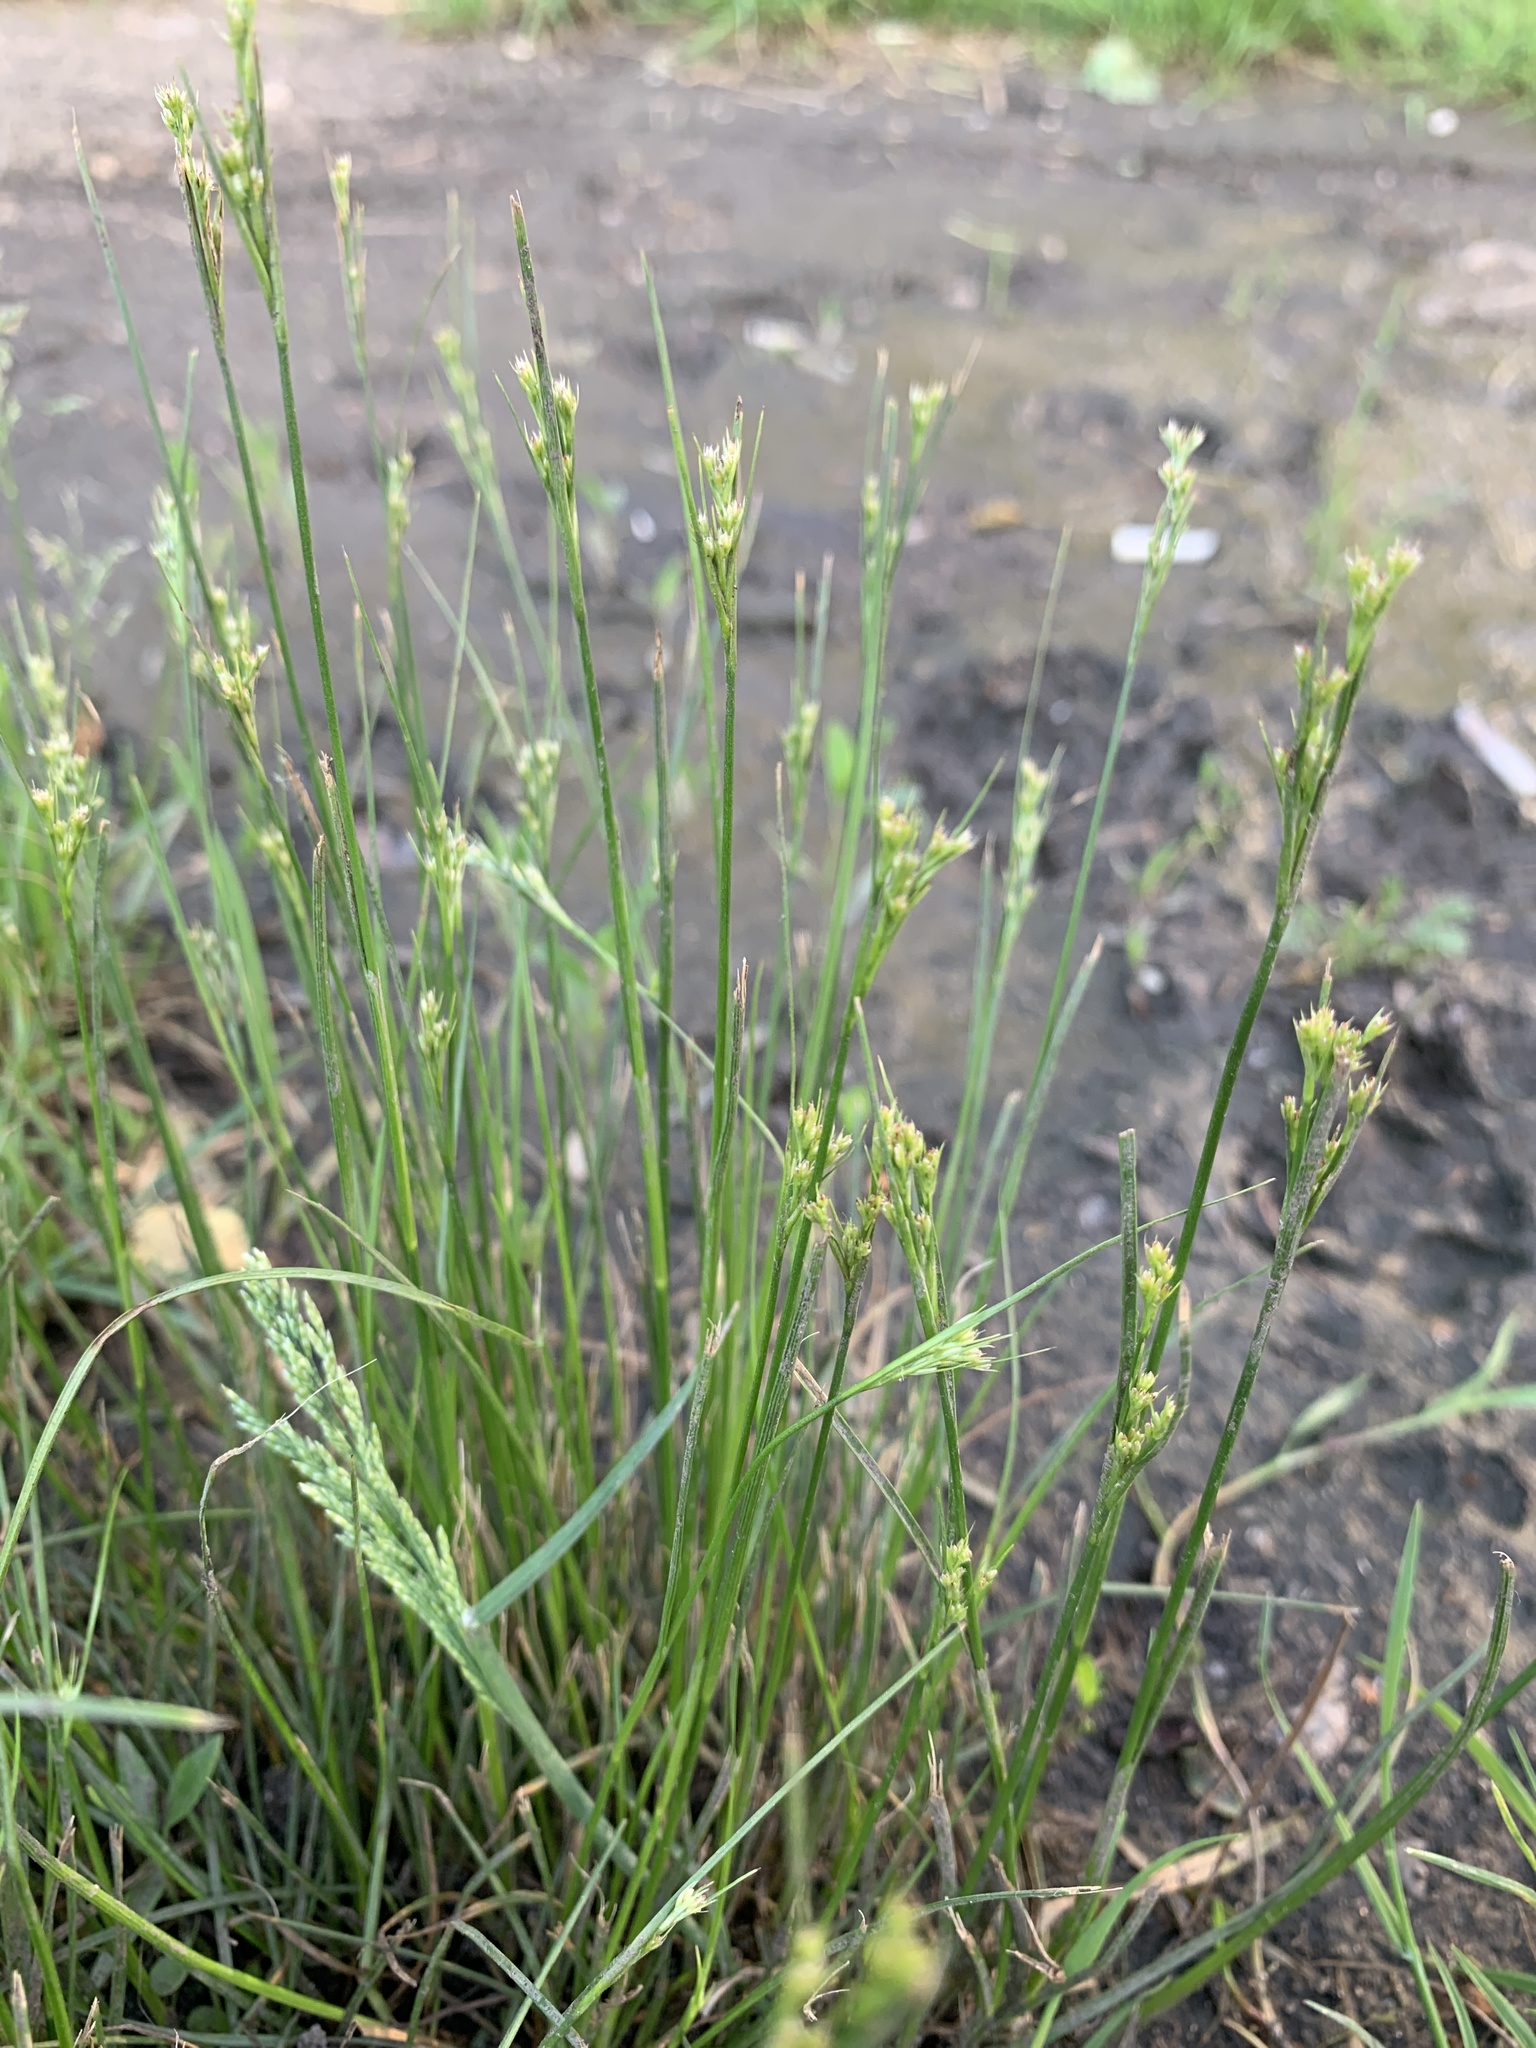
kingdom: Plantae
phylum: Tracheophyta
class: Liliopsida
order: Poales
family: Juncaceae
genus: Juncus
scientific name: Juncus tenuis
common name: Slender rush
